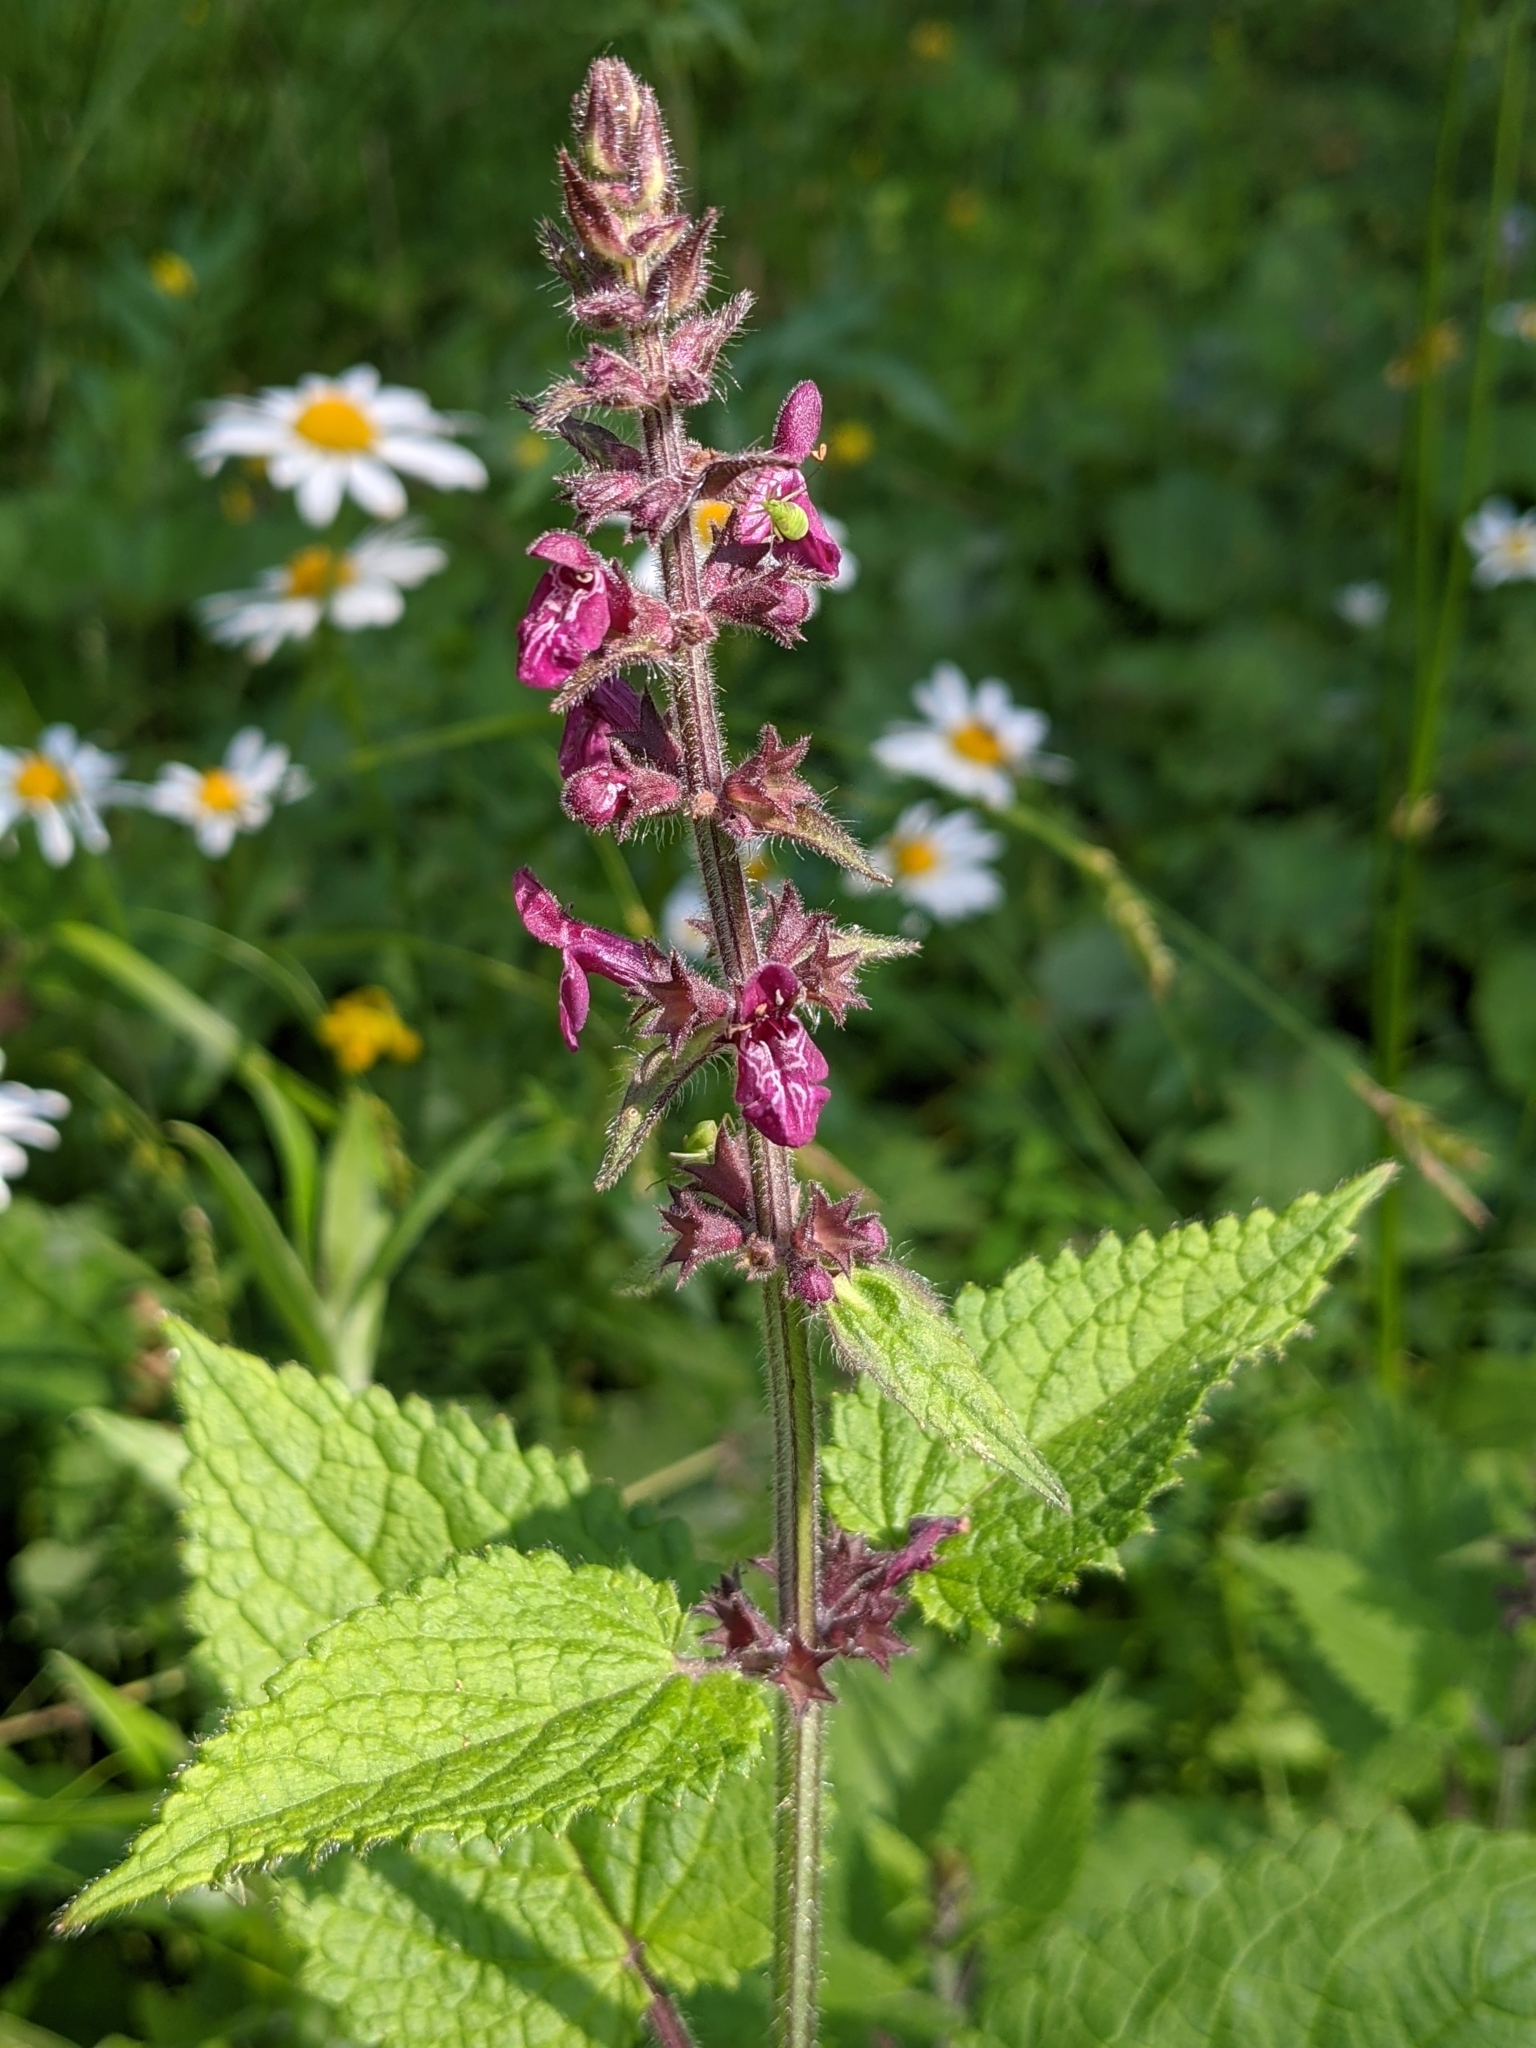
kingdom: Plantae
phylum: Tracheophyta
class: Magnoliopsida
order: Lamiales
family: Lamiaceae
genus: Stachys
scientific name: Stachys sylvatica
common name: Hedge woundwort
